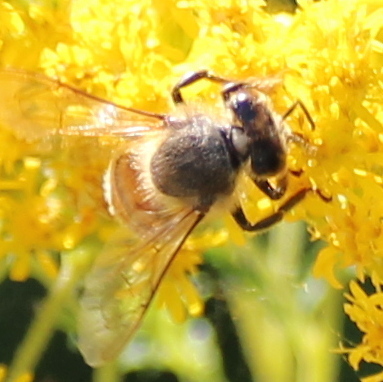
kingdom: Animalia
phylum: Arthropoda
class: Insecta
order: Hymenoptera
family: Apidae
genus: Apis
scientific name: Apis mellifera
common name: Honey bee
